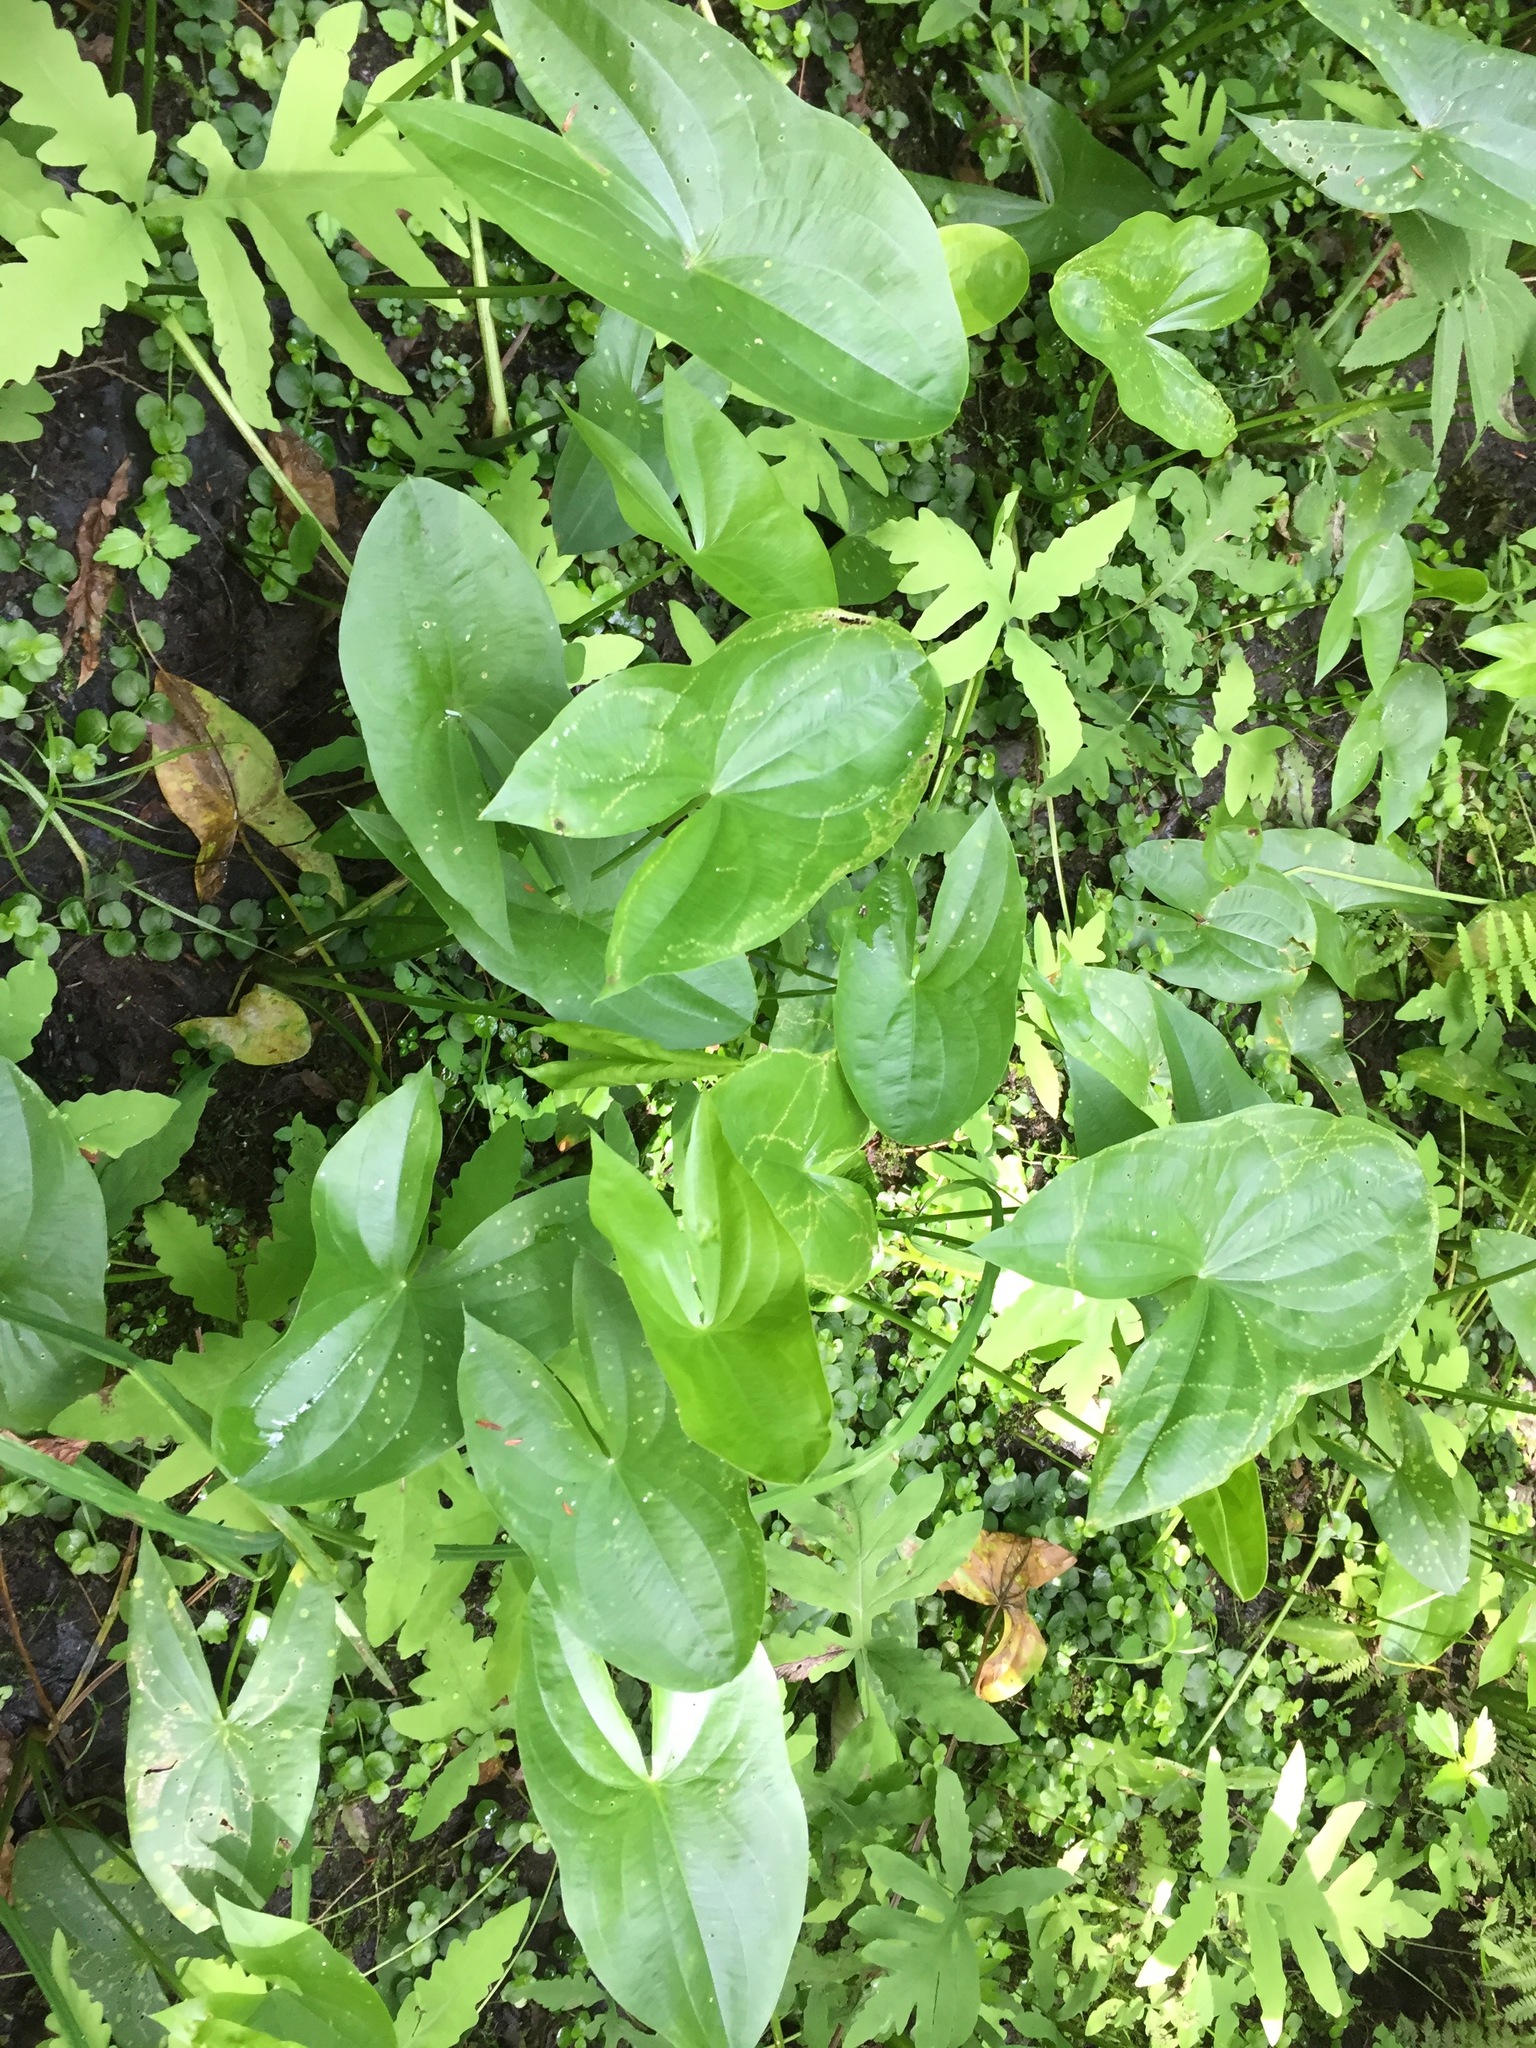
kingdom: Plantae
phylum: Tracheophyta
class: Liliopsida
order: Alismatales
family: Alismataceae
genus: Sagittaria
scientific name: Sagittaria latifolia
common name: Duck-potato
